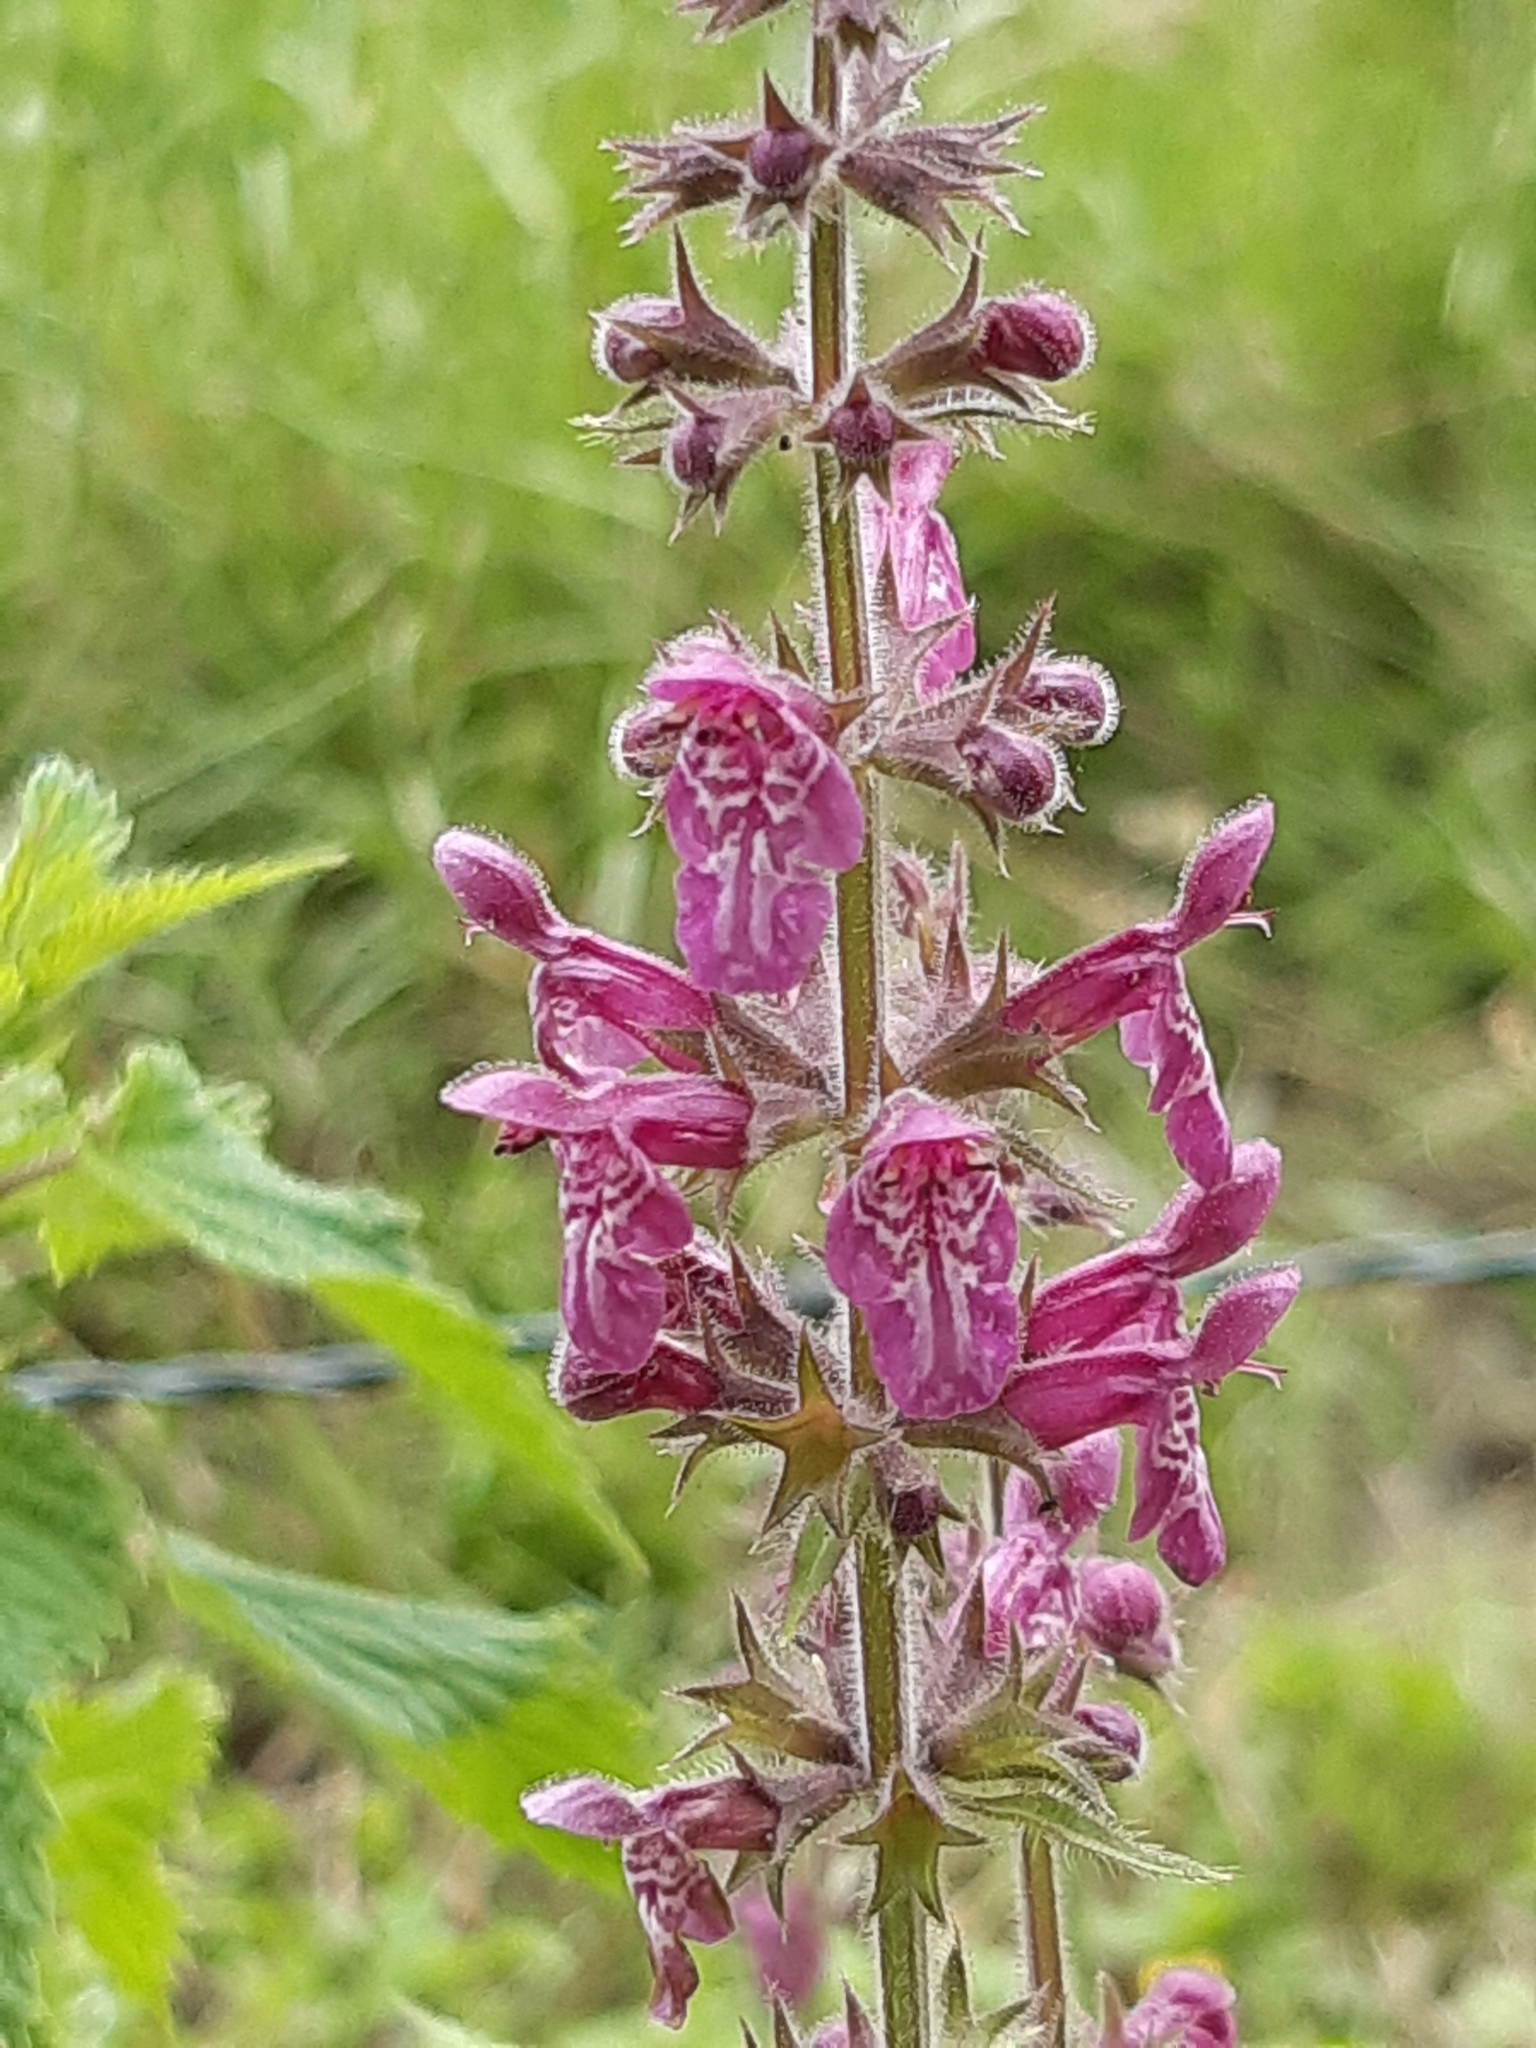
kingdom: Plantae
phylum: Tracheophyta
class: Magnoliopsida
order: Lamiales
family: Lamiaceae
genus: Stachys
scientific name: Stachys sylvatica
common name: Hedge woundwort
